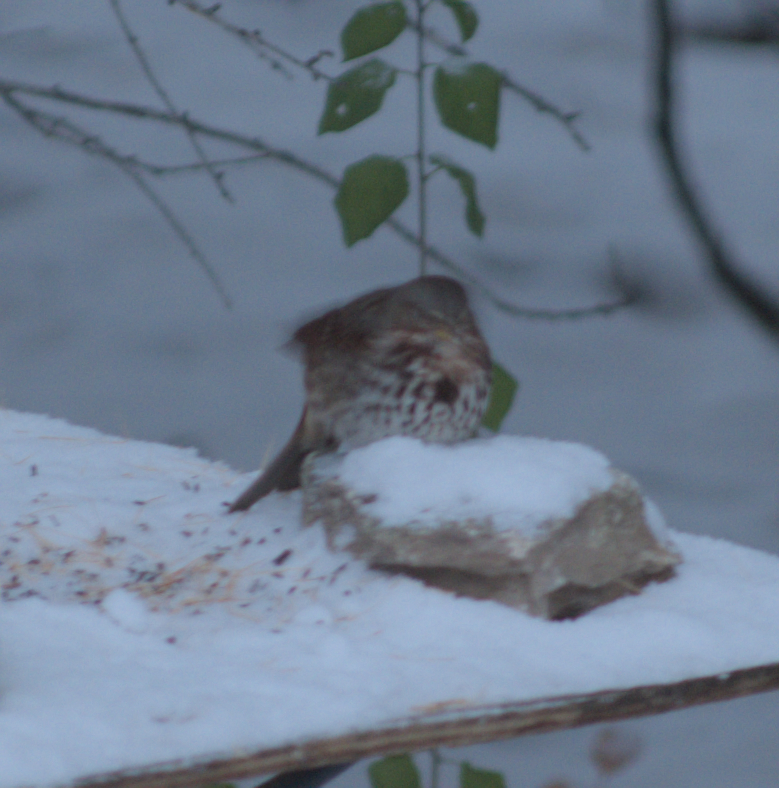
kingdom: Animalia
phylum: Chordata
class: Aves
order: Passeriformes
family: Passerellidae
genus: Passerella
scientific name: Passerella iliaca
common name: Fox sparrow
